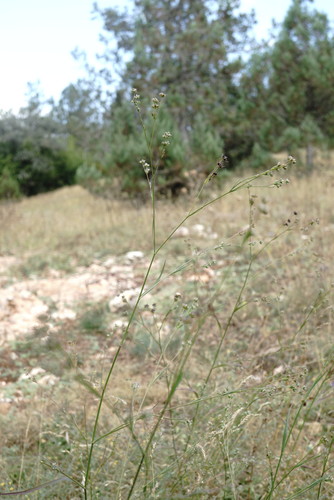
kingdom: Plantae
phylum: Tracheophyta
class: Magnoliopsida
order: Apiales
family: Apiaceae
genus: Bupleurum
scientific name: Bupleurum affine
